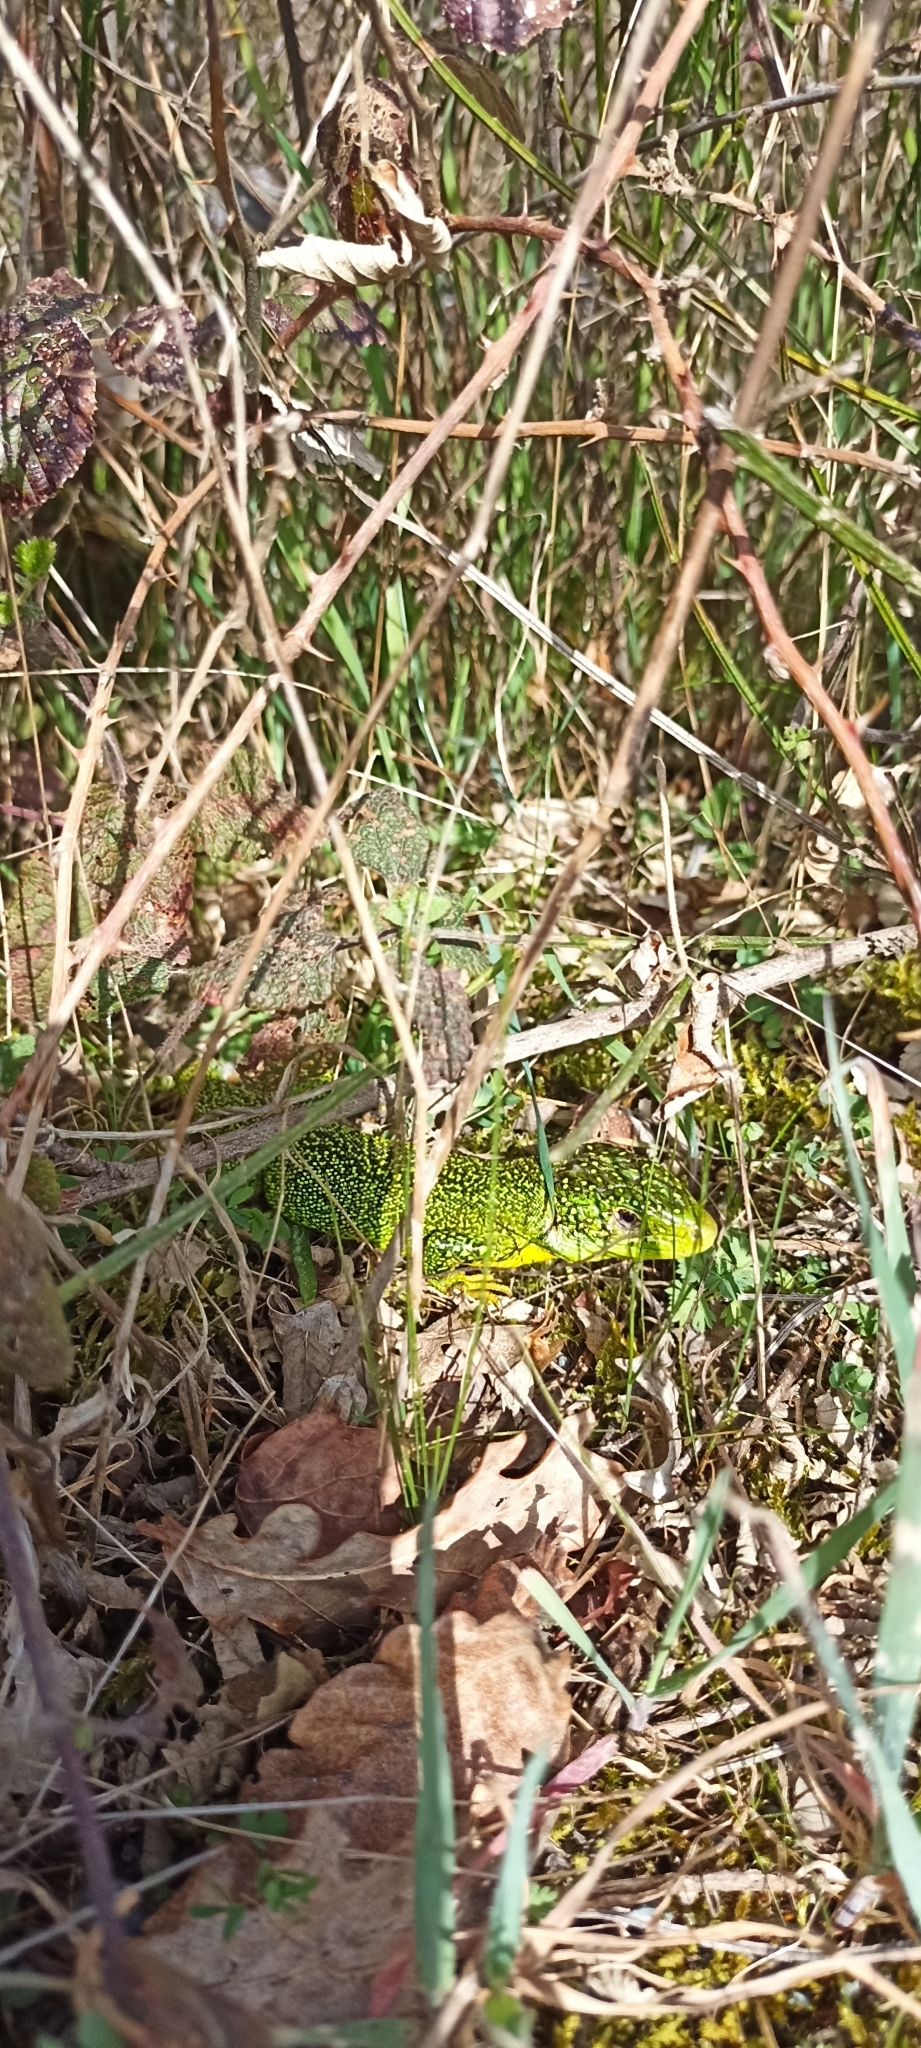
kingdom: Animalia
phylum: Chordata
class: Squamata
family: Lacertidae
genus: Lacerta
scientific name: Lacerta bilineata
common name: Western green lizard
